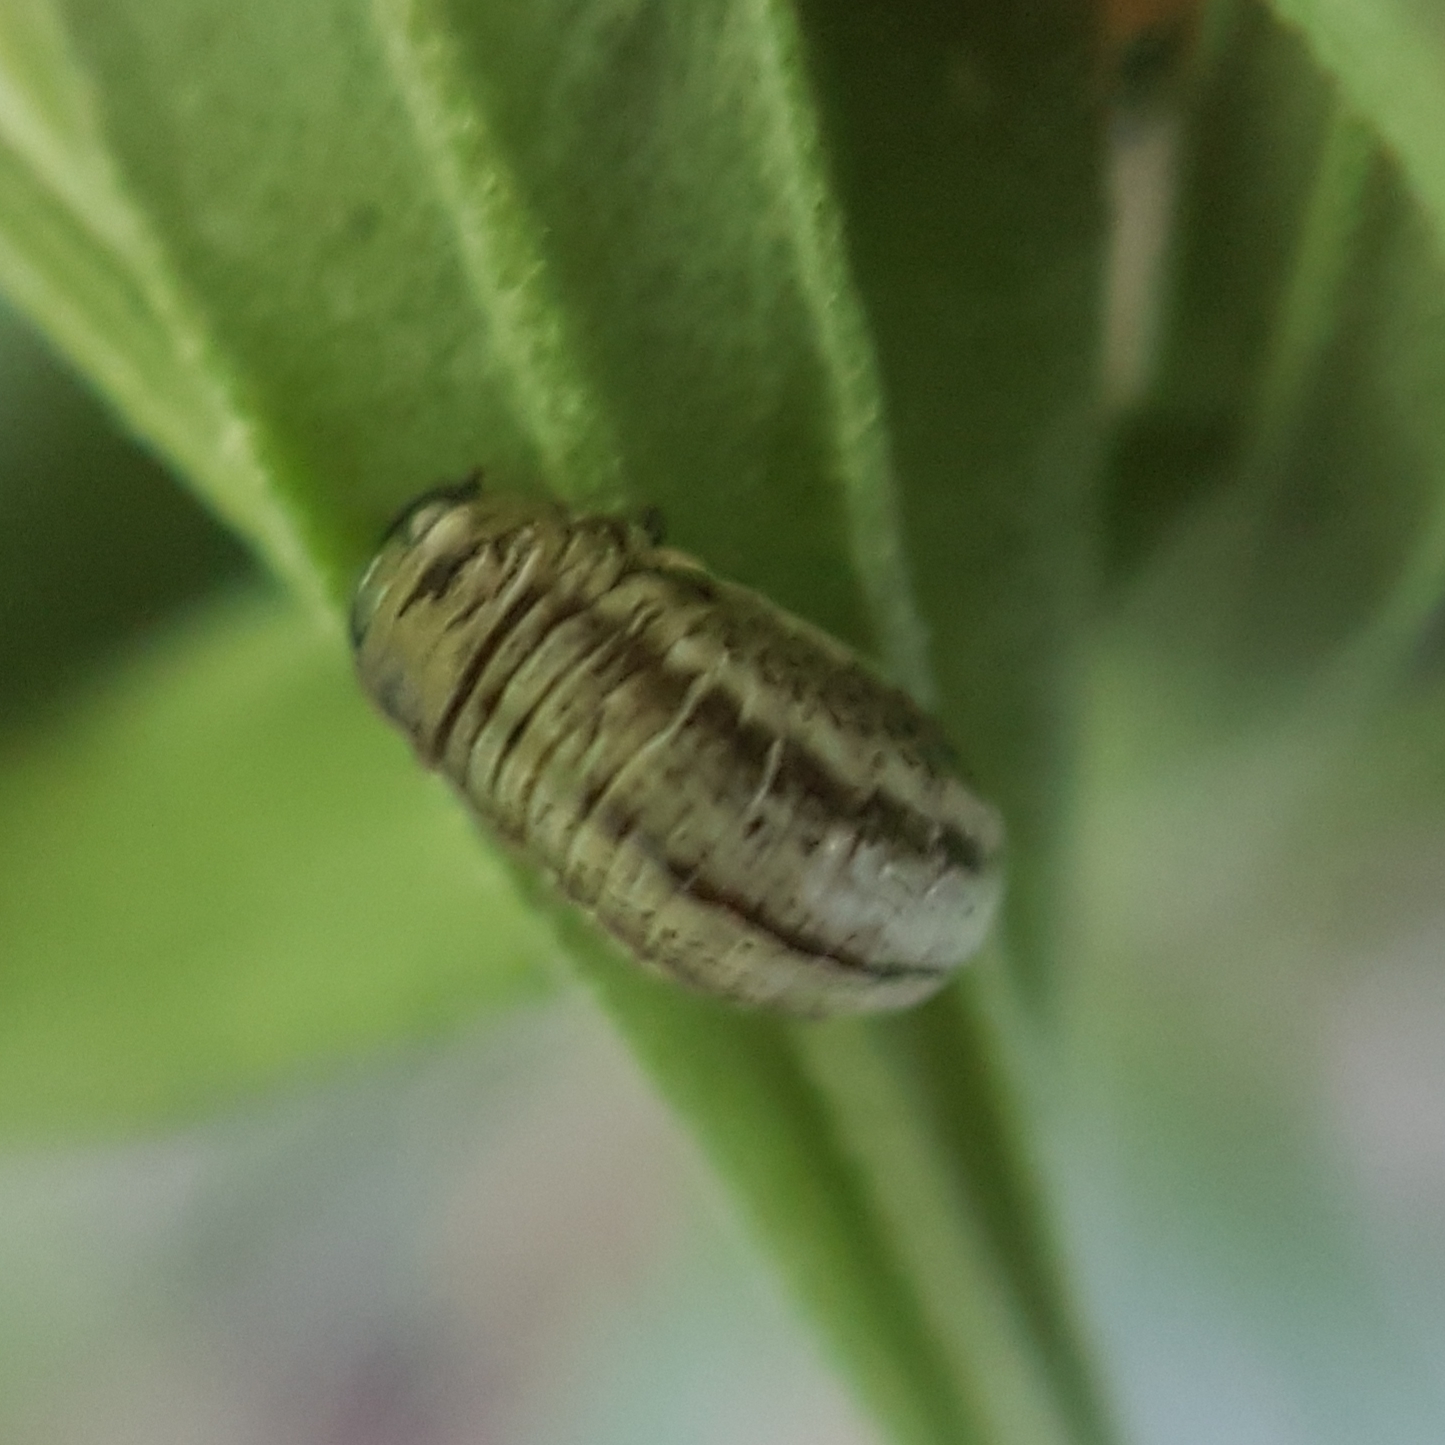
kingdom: Animalia
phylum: Arthropoda
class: Insecta
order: Coleoptera
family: Chrysomelidae
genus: Chrysolina
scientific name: Chrysolina americana
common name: Rosemary beetle
